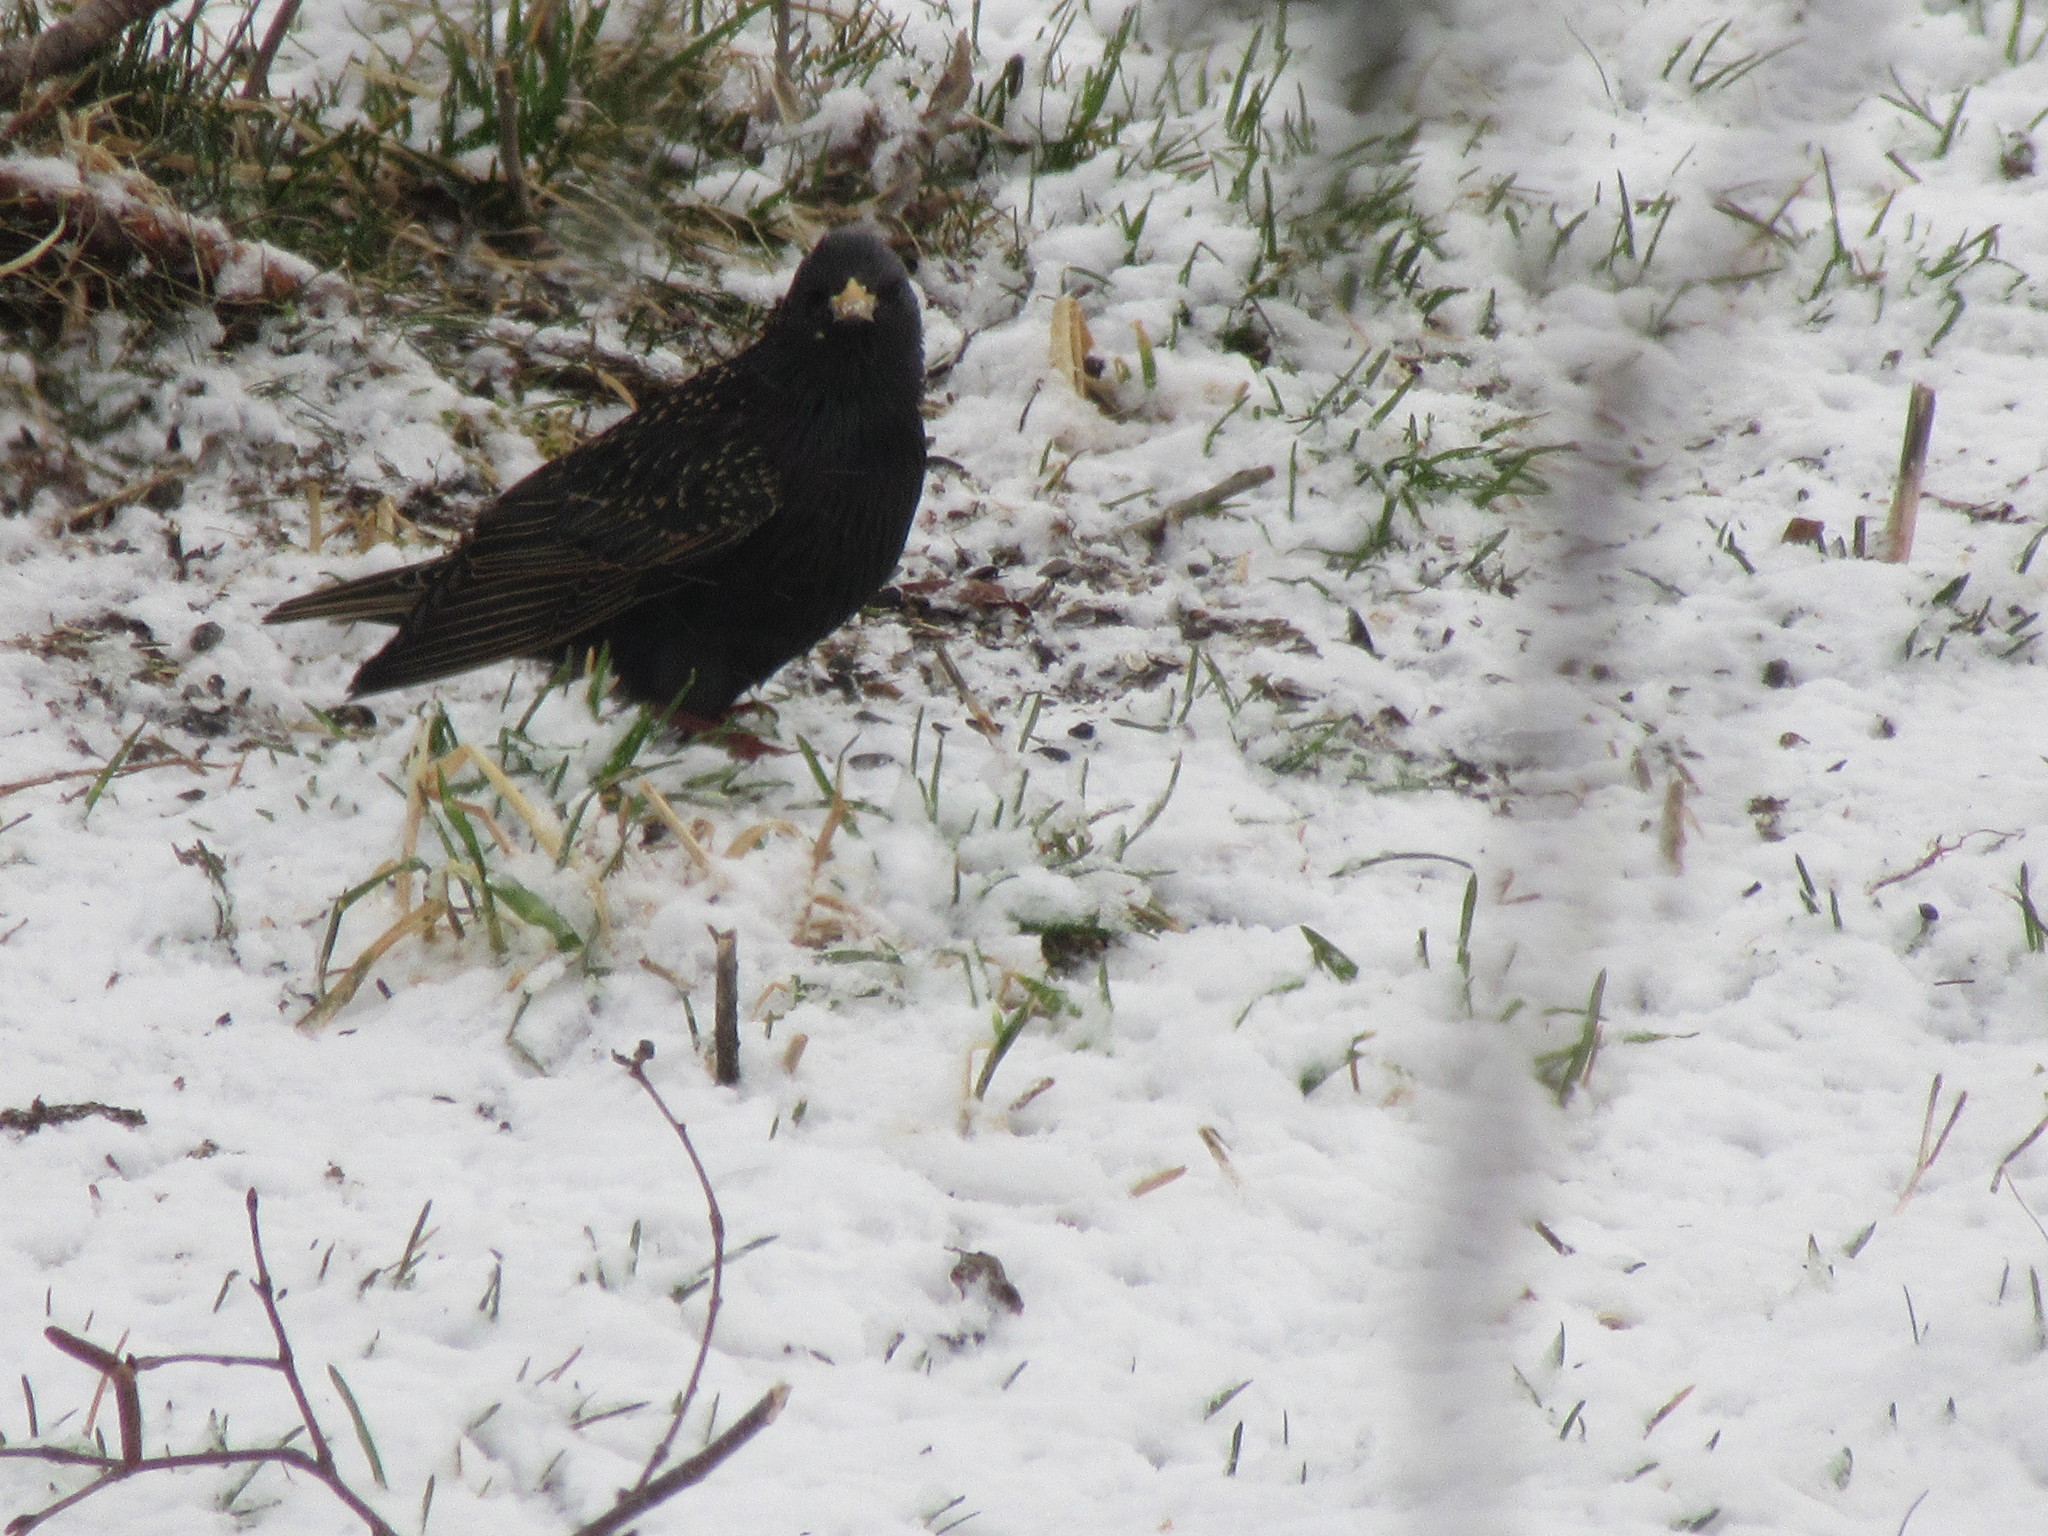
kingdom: Animalia
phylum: Chordata
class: Aves
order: Passeriformes
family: Sturnidae
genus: Sturnus
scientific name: Sturnus vulgaris
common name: Common starling
